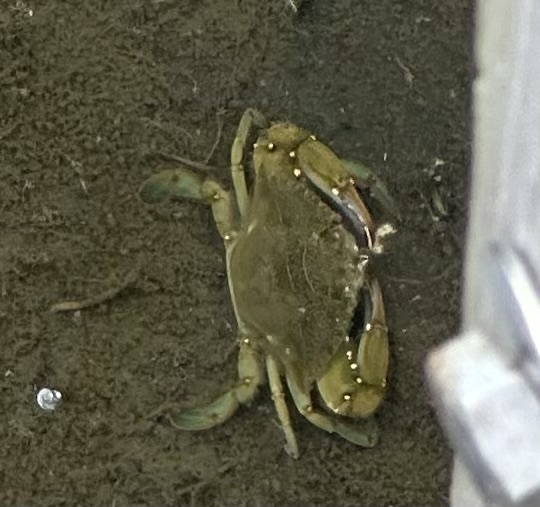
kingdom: Animalia
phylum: Arthropoda
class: Malacostraca
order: Decapoda
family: Portunidae
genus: Callinectes
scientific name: Callinectes sapidus
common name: Blue crab
